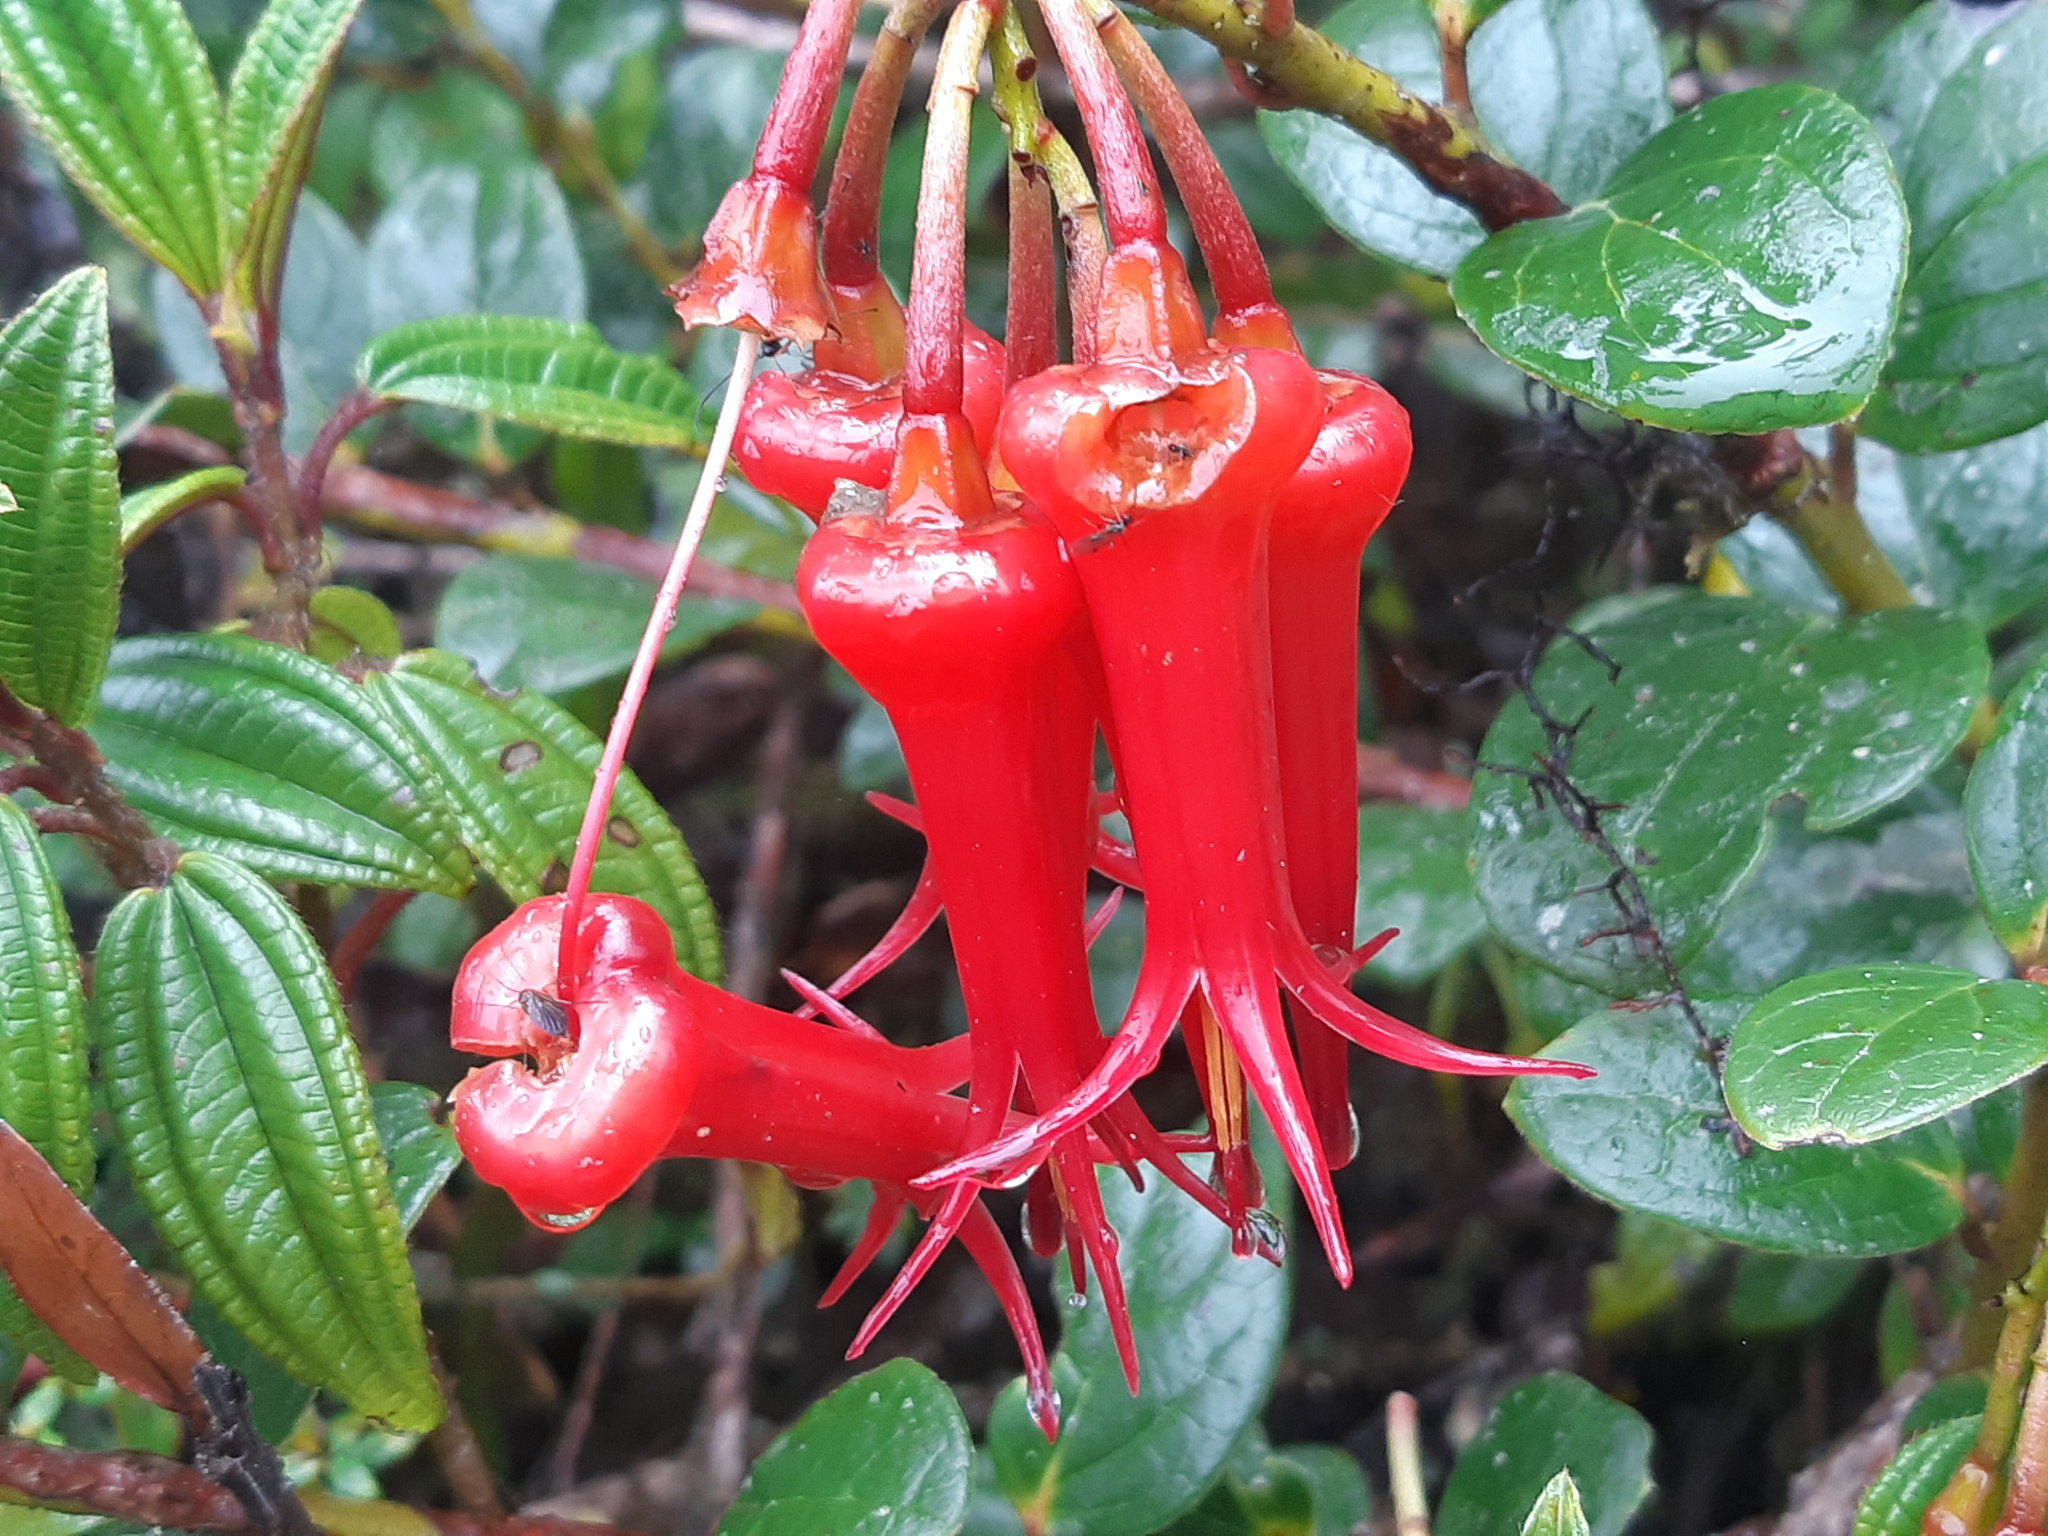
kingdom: Plantae
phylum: Tracheophyta
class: Magnoliopsida
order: Ericales
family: Ericaceae
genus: Ceratostema
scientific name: Ceratostema alatum
